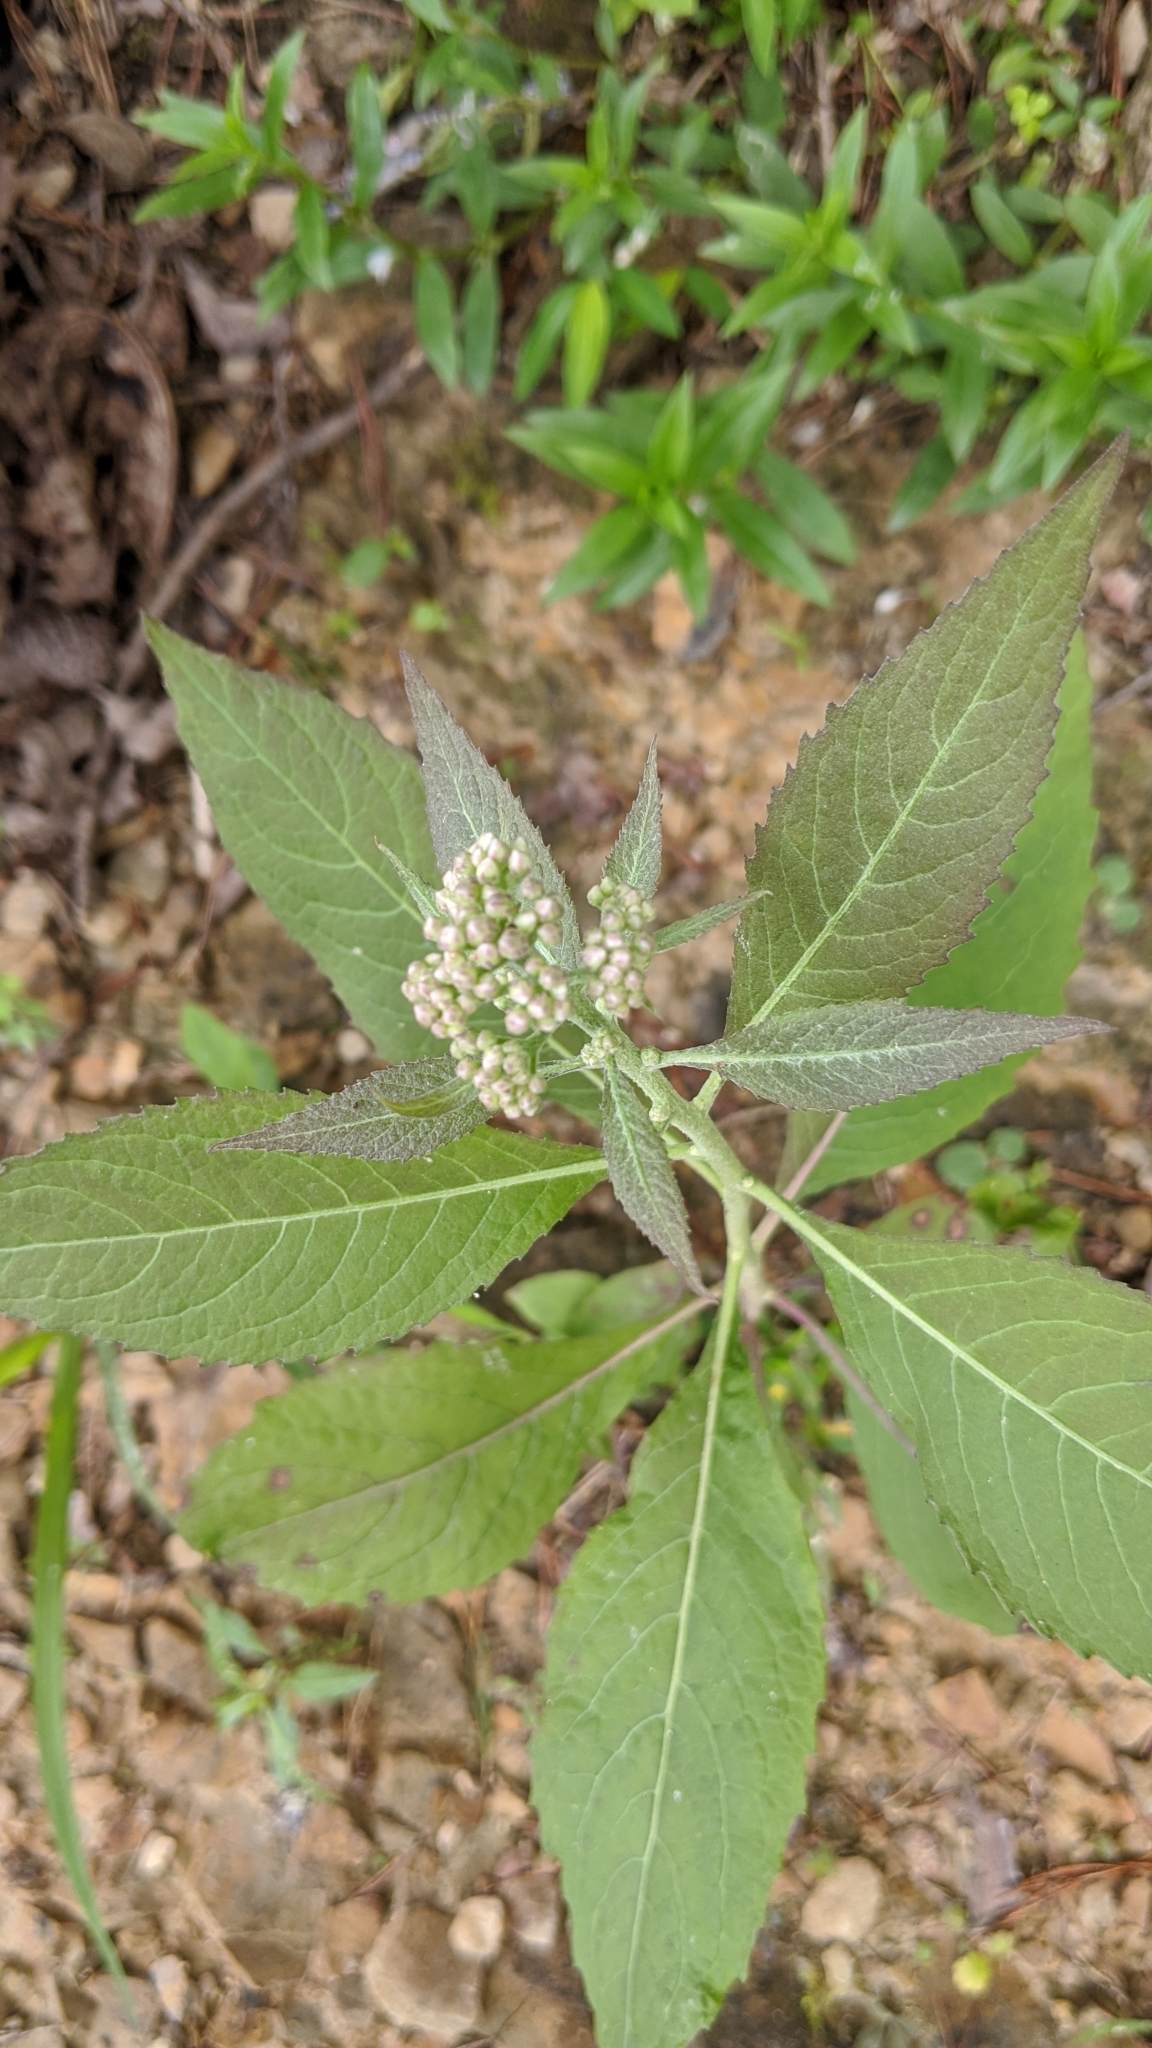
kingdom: Plantae
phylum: Tracheophyta
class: Magnoliopsida
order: Asterales
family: Asteraceae
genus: Pluchea
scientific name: Pluchea camphorata
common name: Camphor pluchea
